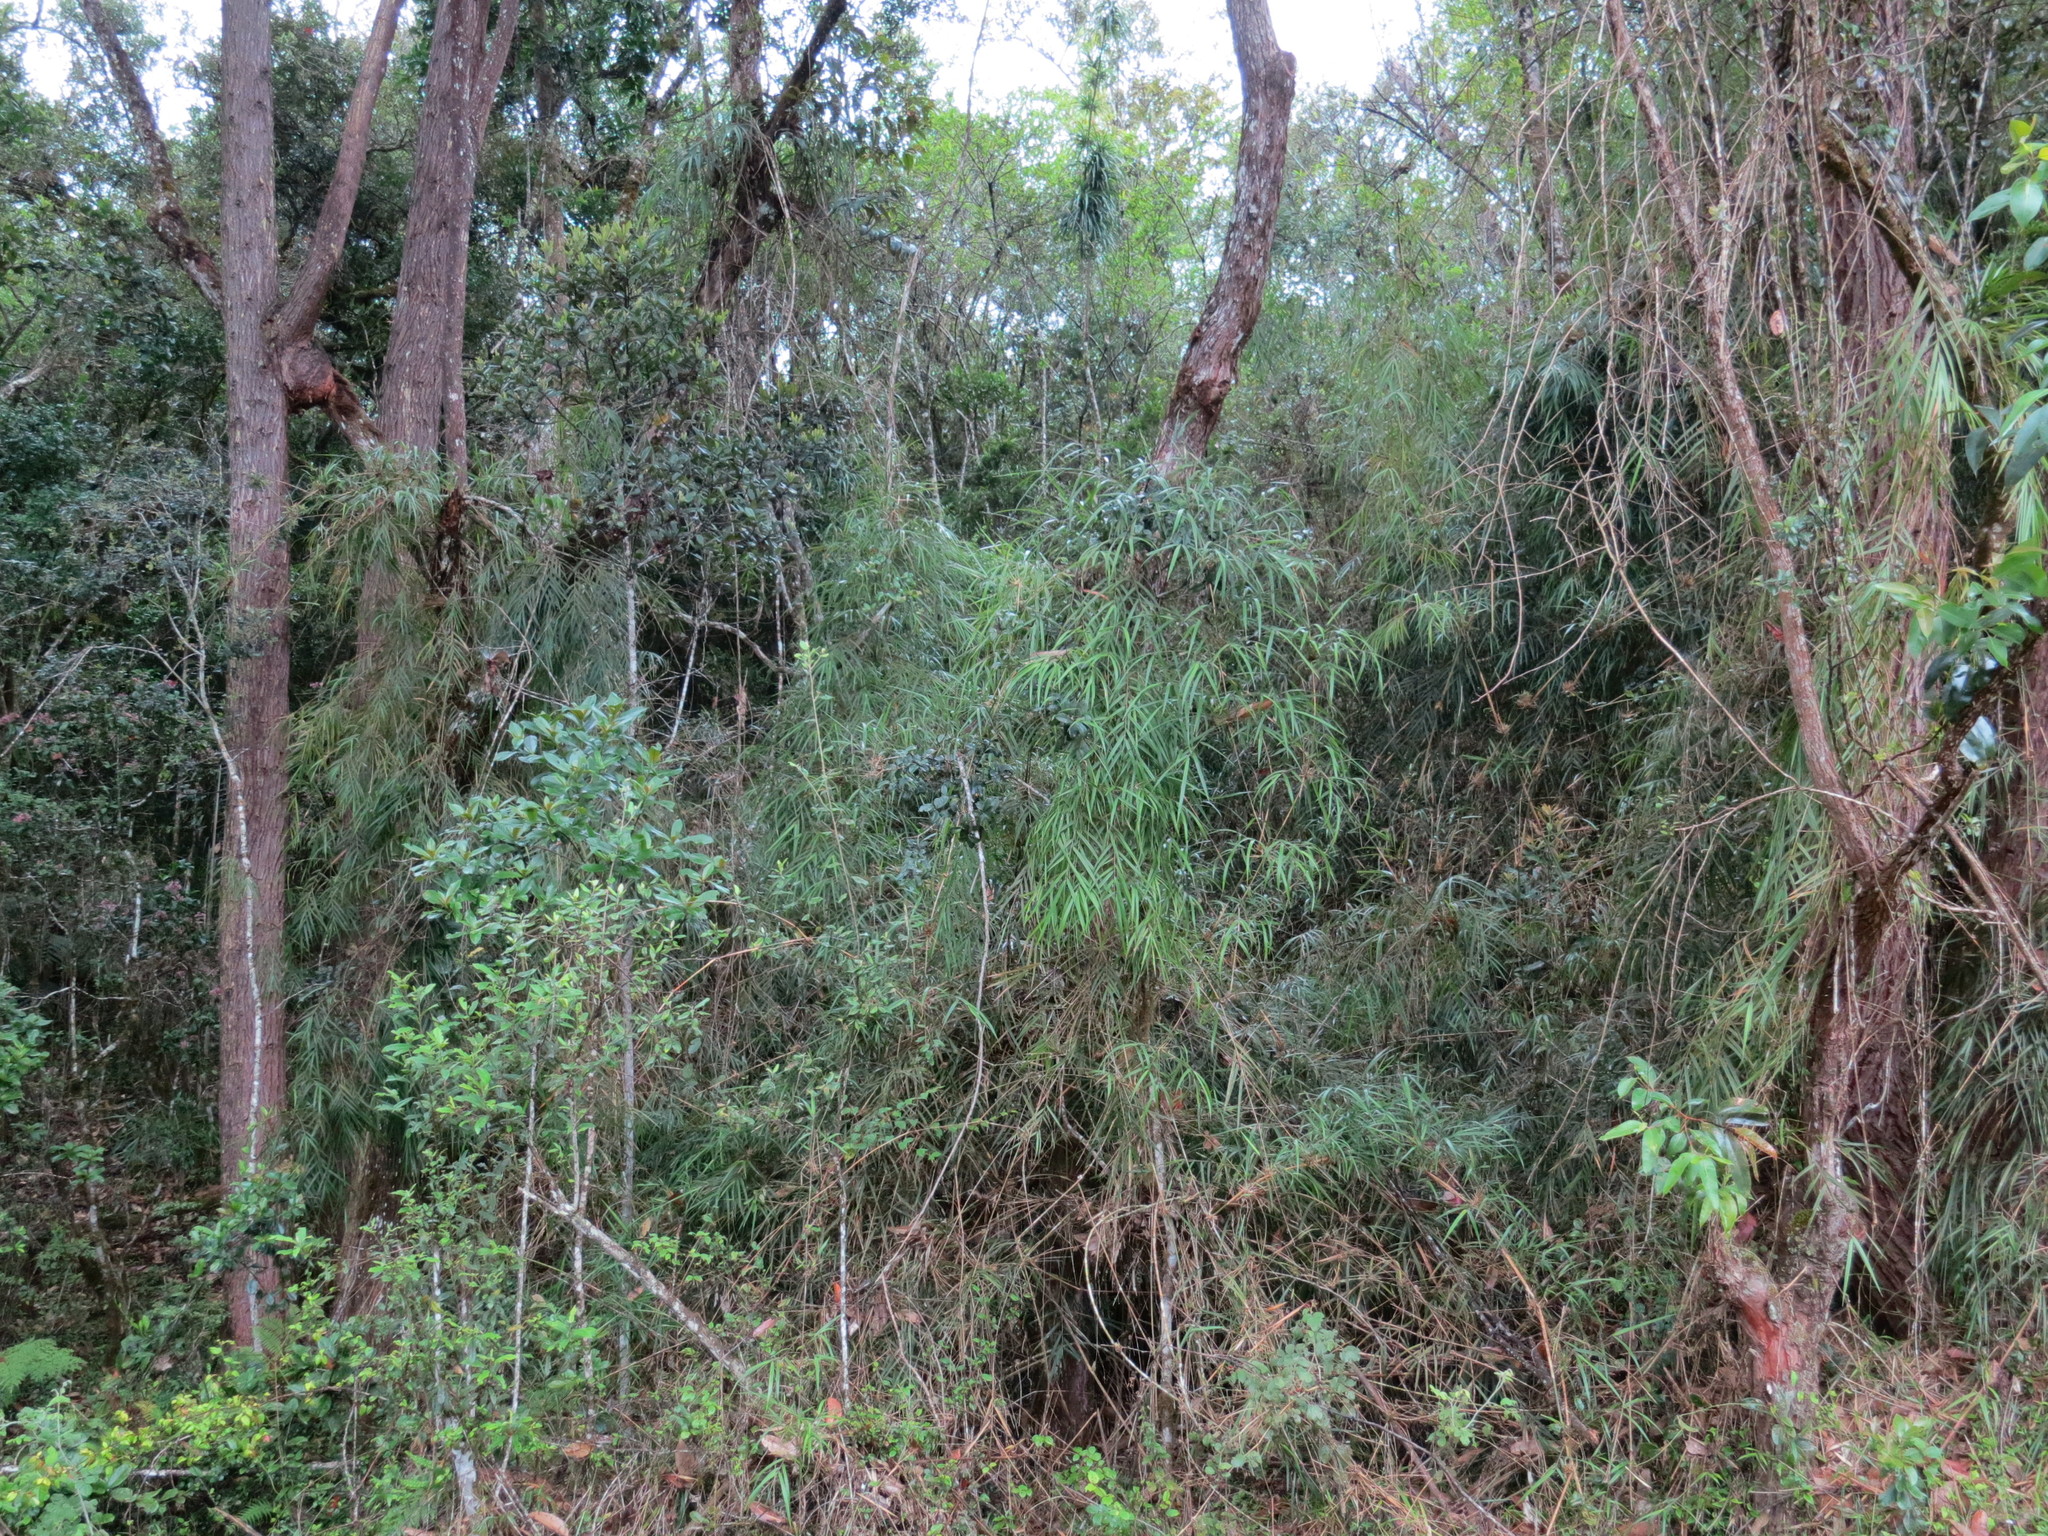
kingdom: Plantae
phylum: Tracheophyta
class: Liliopsida
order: Poales
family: Poaceae
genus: Hickelia
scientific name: Hickelia madagascariensis
